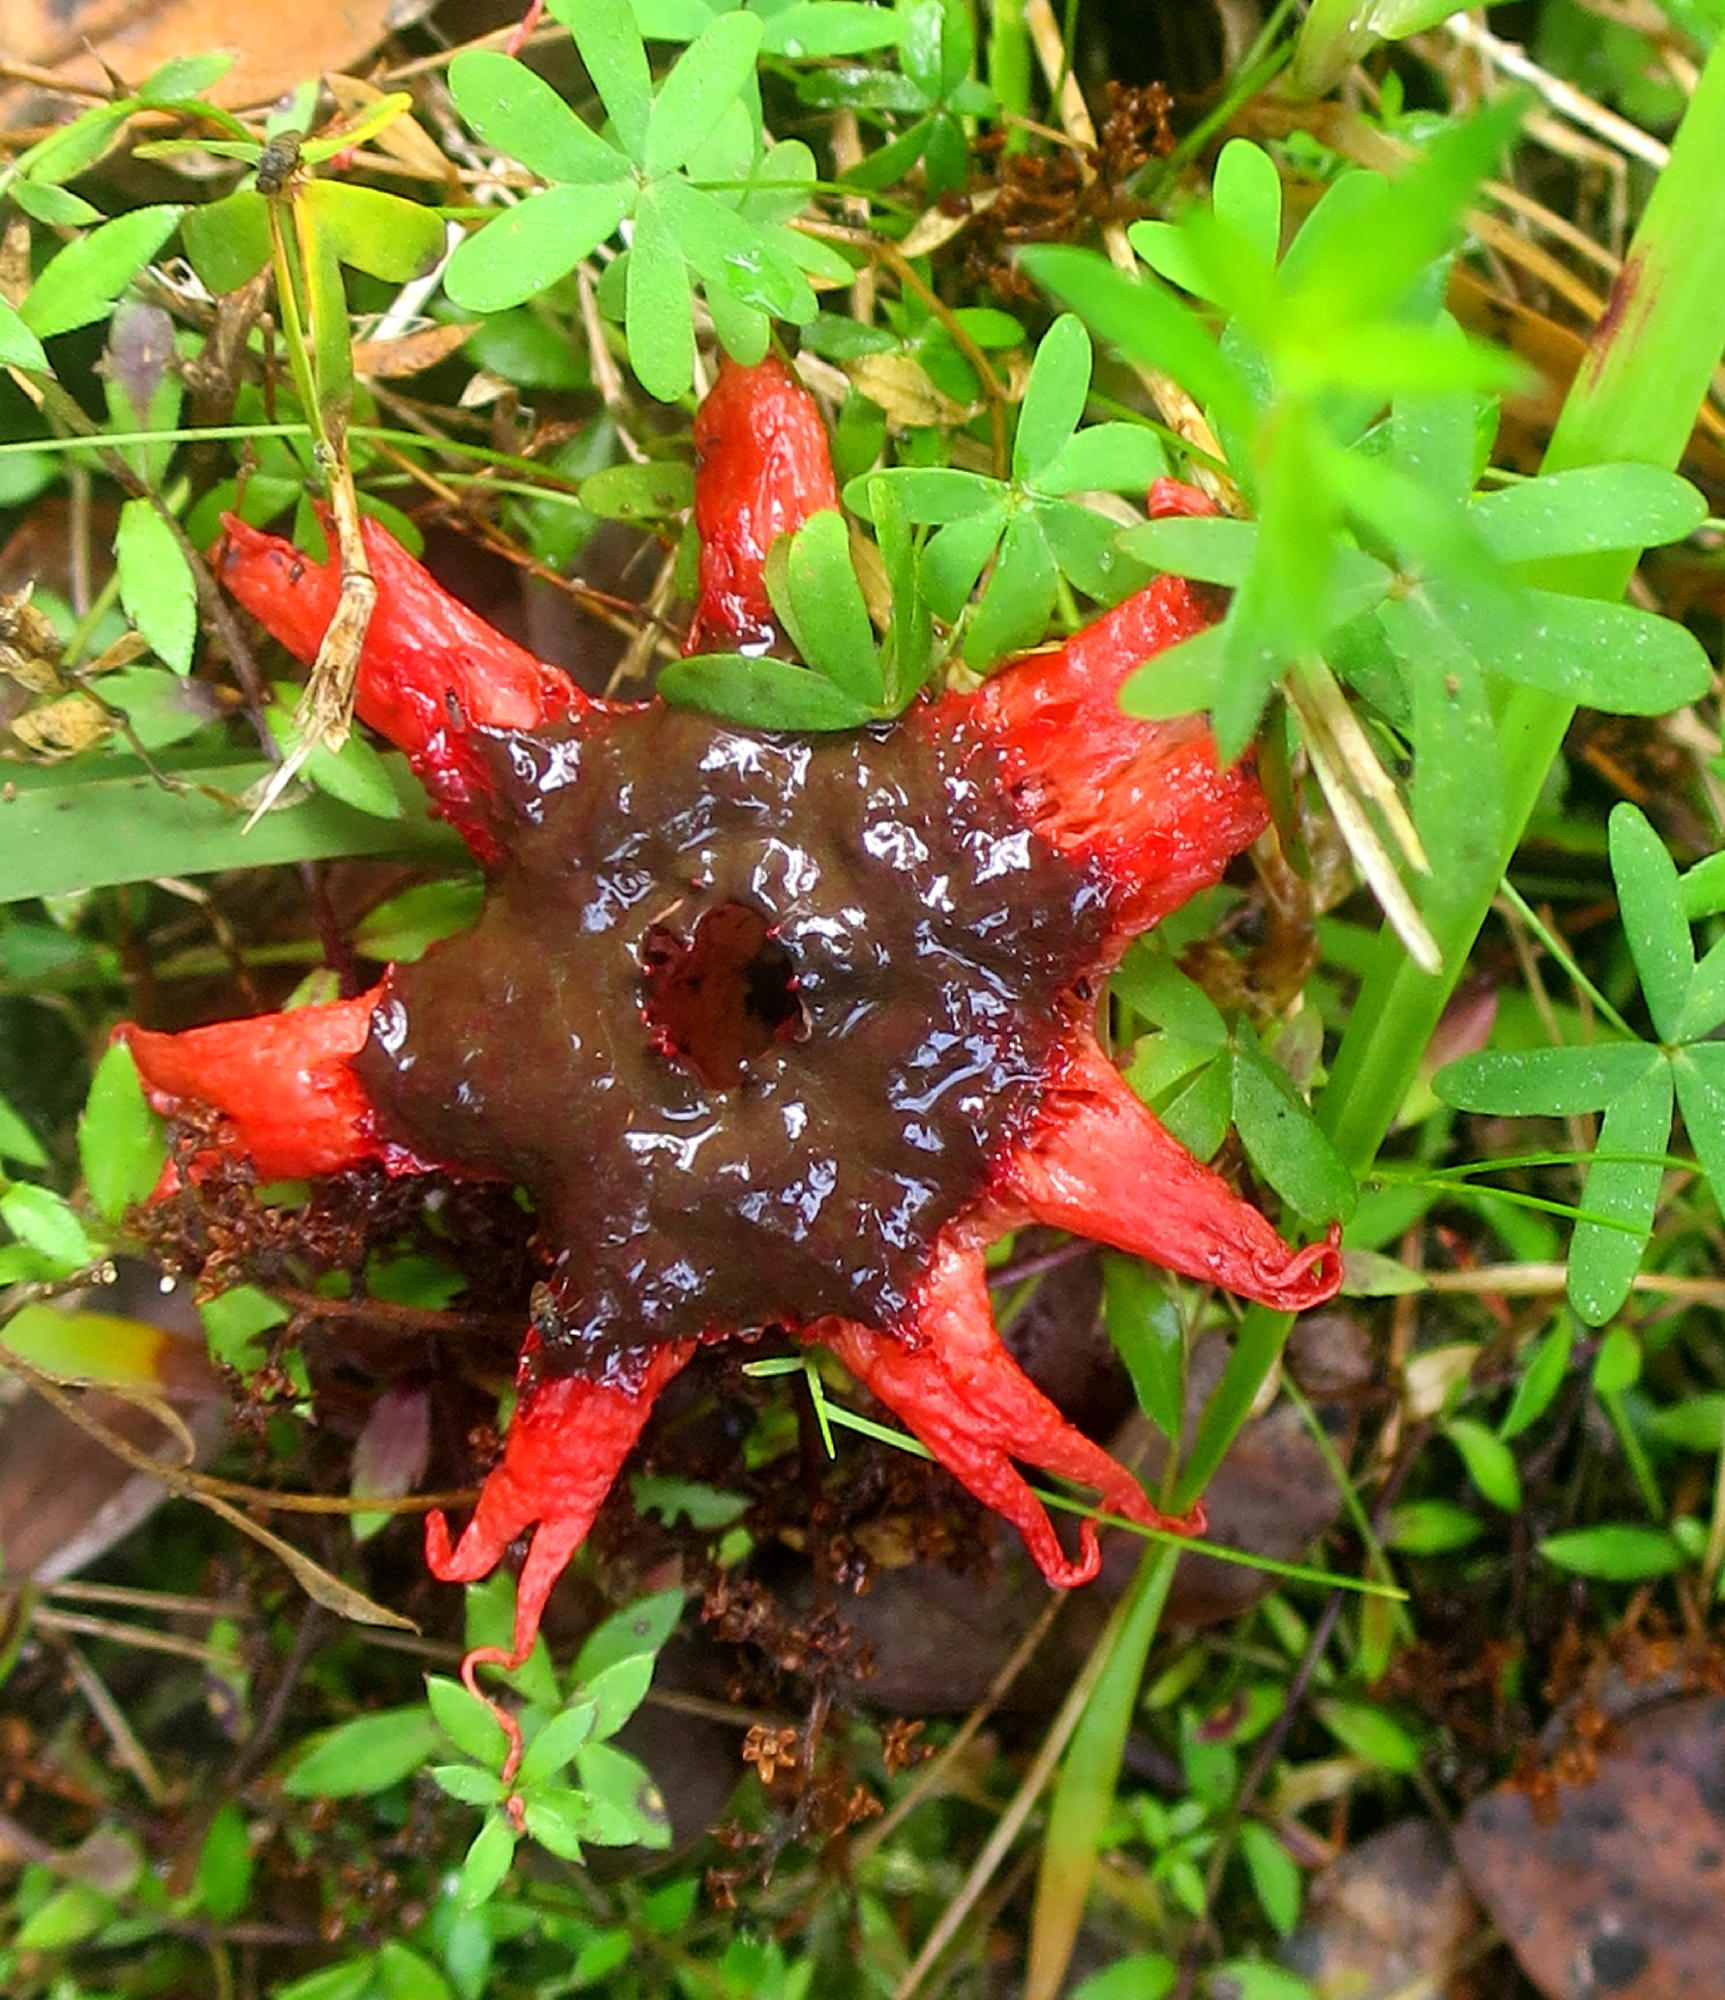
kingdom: Fungi
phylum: Basidiomycota
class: Agaricomycetes
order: Phallales
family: Phallaceae
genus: Aseroe
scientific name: Aseroe rubra
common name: Starfish fungus
